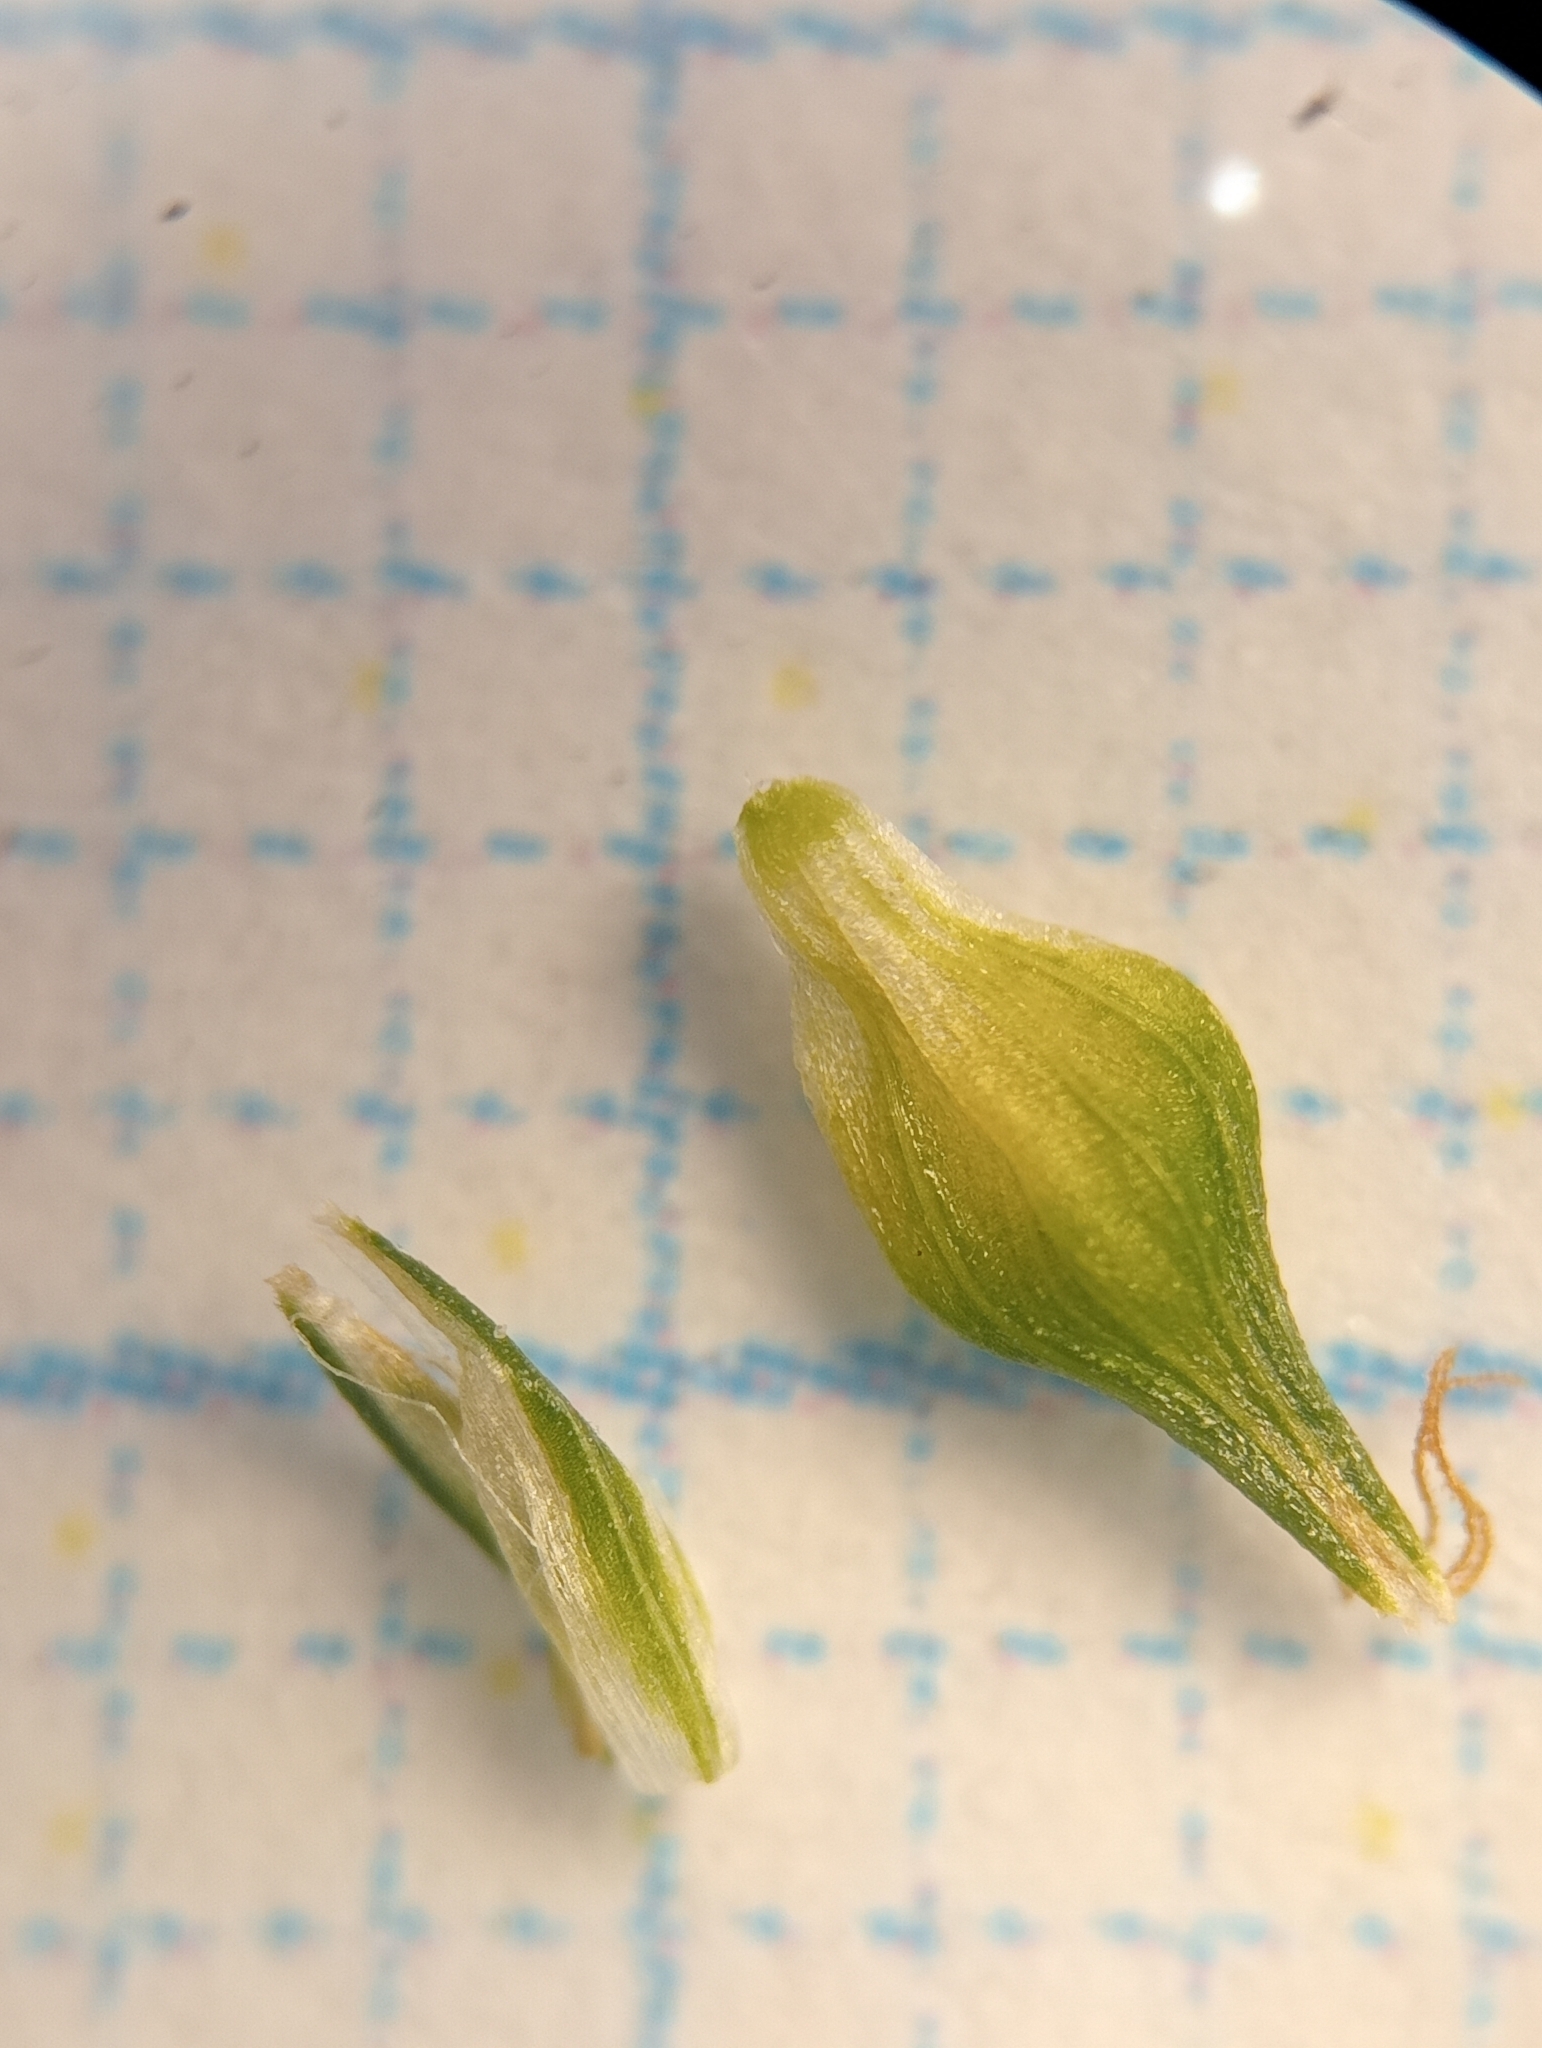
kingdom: Plantae
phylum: Tracheophyta
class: Liliopsida
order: Poales
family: Cyperaceae
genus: Carex
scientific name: Carex flaviformis
